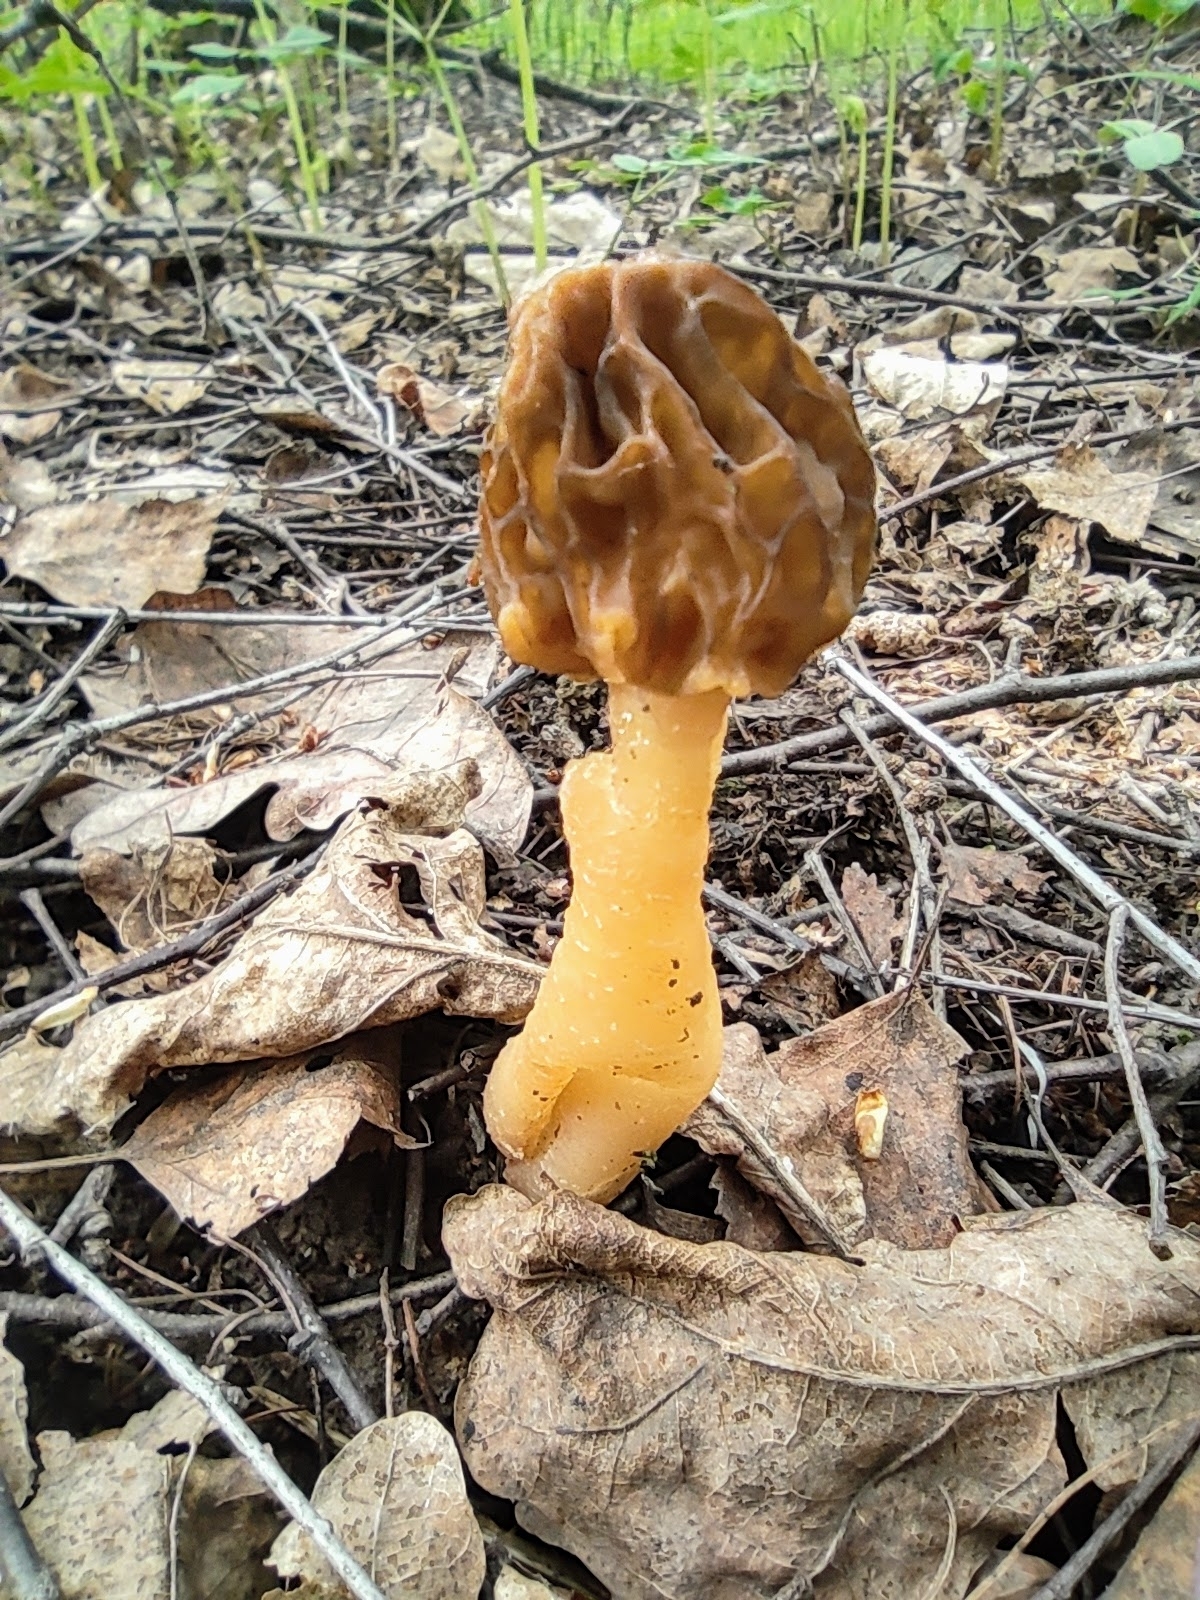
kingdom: Fungi
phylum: Ascomycota
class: Pezizomycetes
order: Pezizales
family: Morchellaceae
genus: Verpa
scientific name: Verpa bohemica
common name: Wrinkled thimble morel
